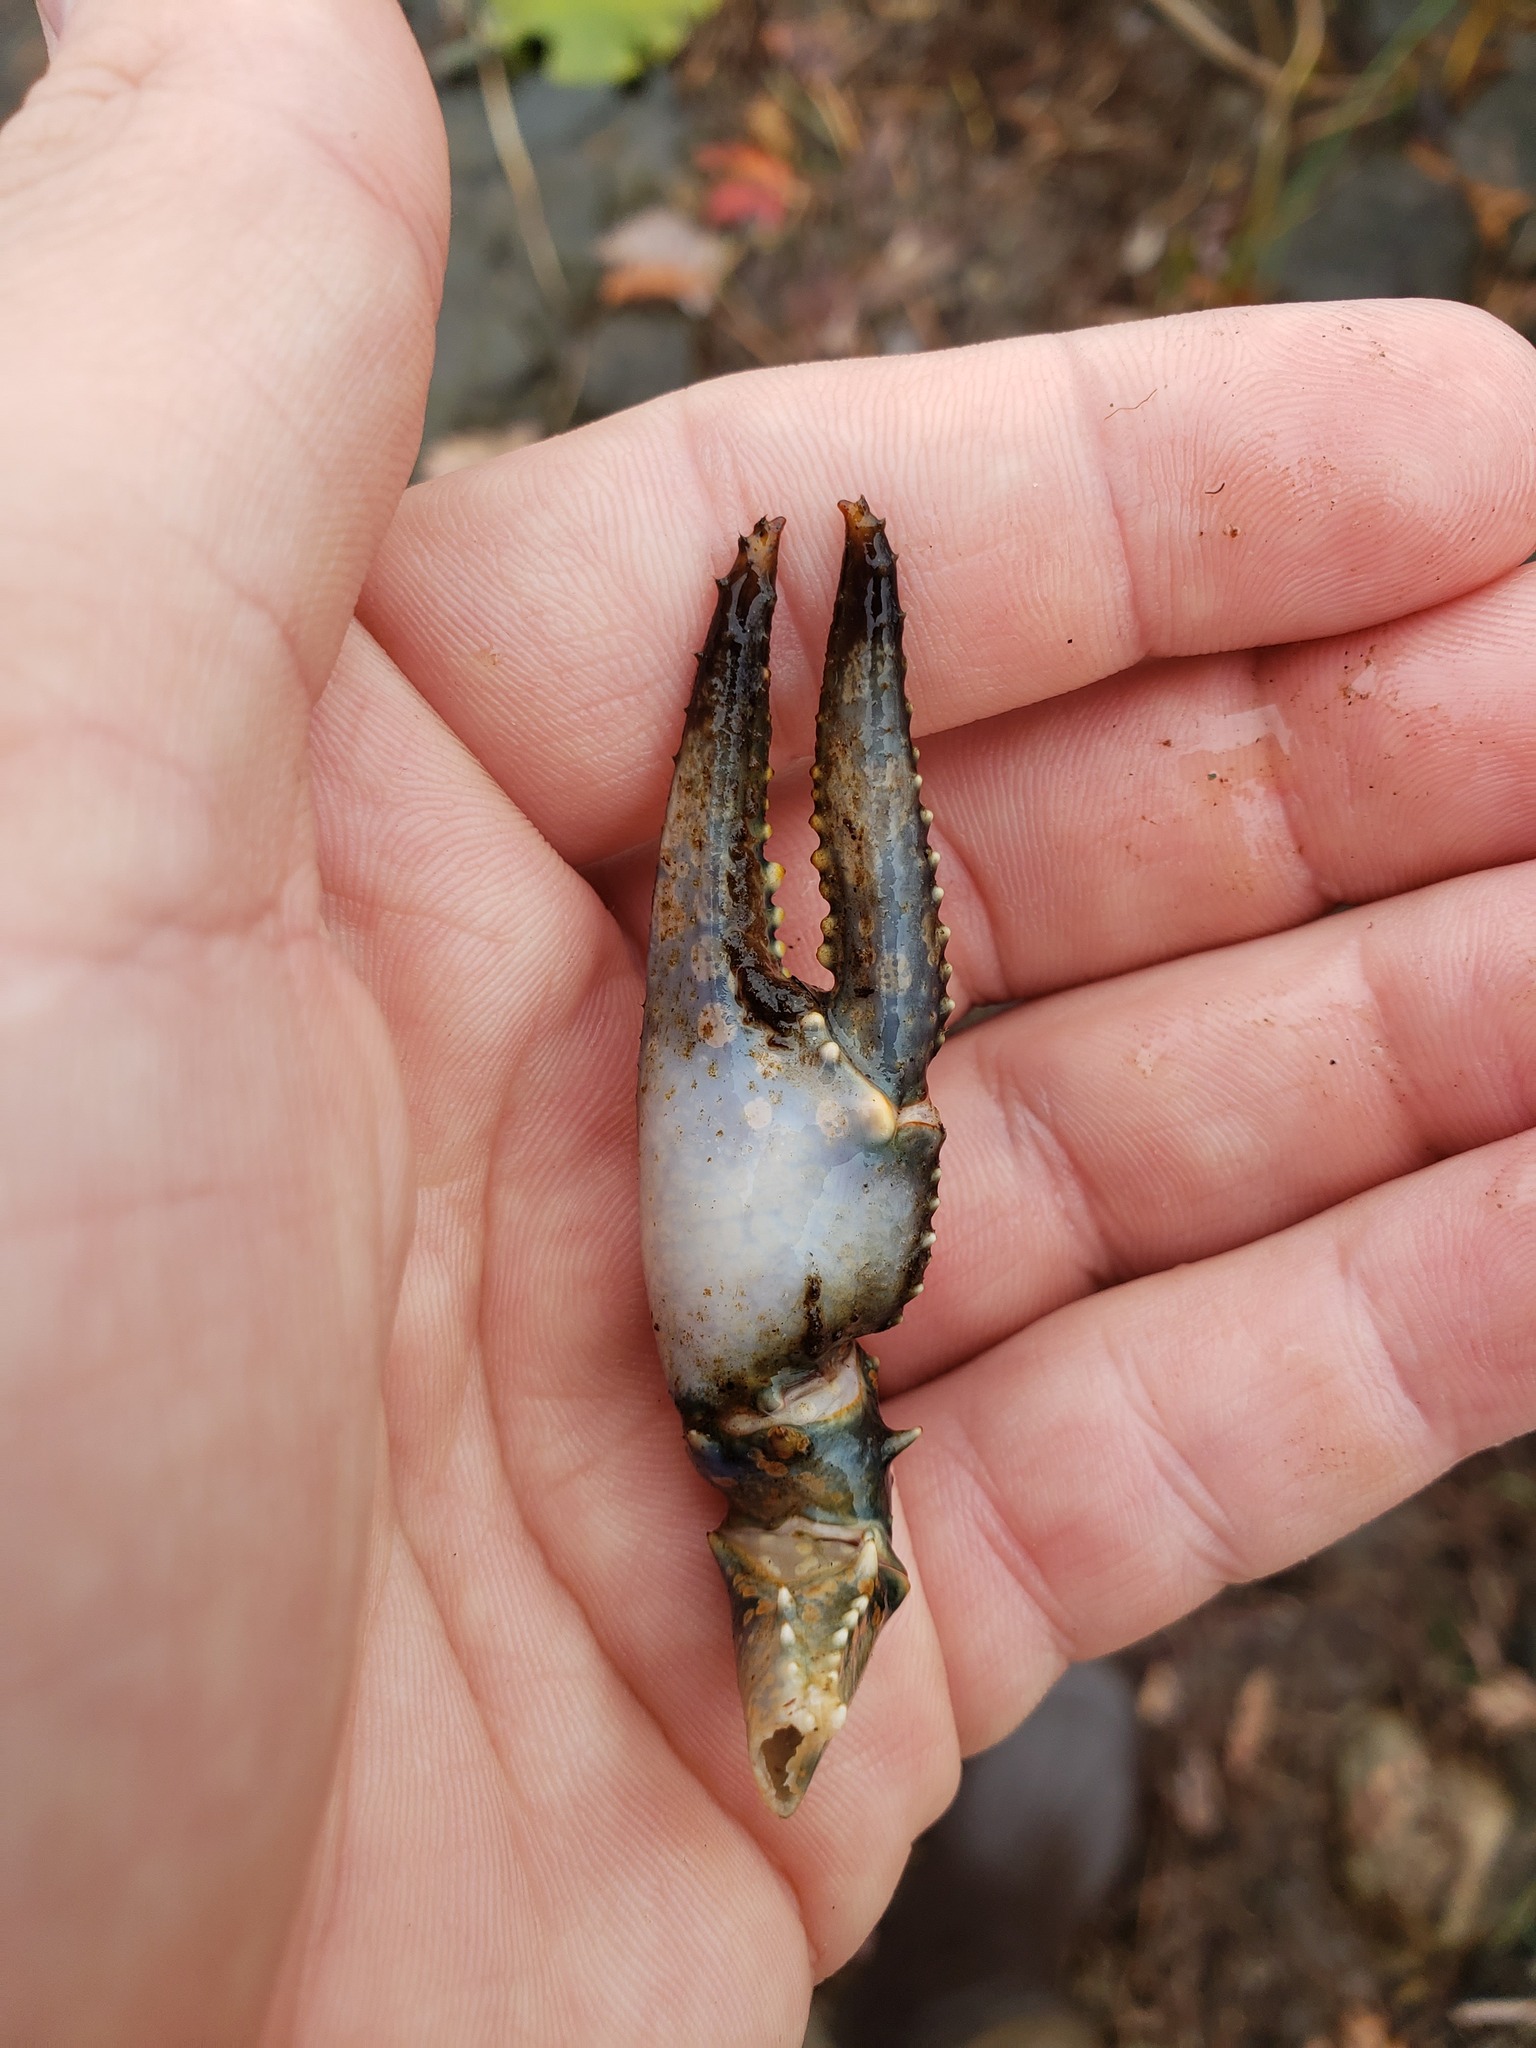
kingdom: Animalia
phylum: Arthropoda
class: Malacostraca
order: Decapoda
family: Cambaridae
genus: Faxonius
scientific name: Faxonius virilis
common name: Virile crayfish
